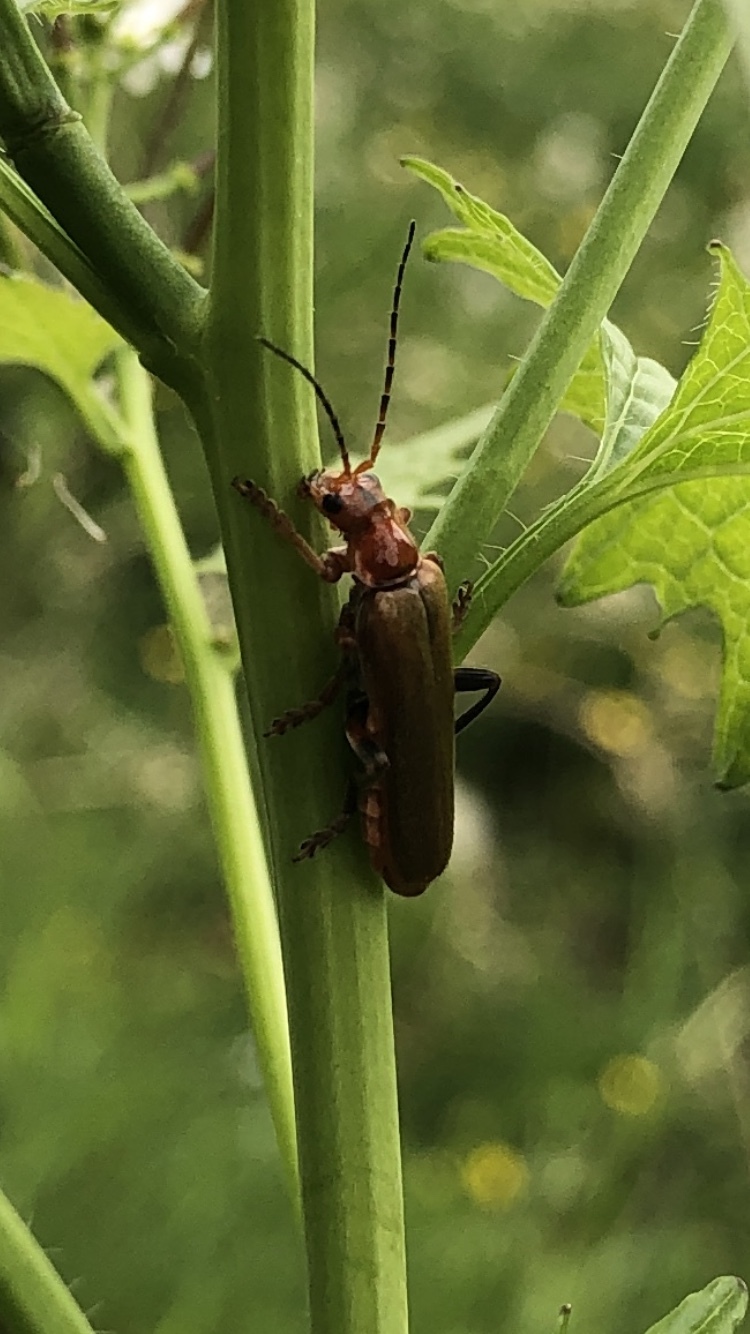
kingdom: Animalia
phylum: Arthropoda
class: Insecta
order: Coleoptera
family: Cantharidae
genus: Cantharis
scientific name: Cantharis livida
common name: Livid soldier beetle
